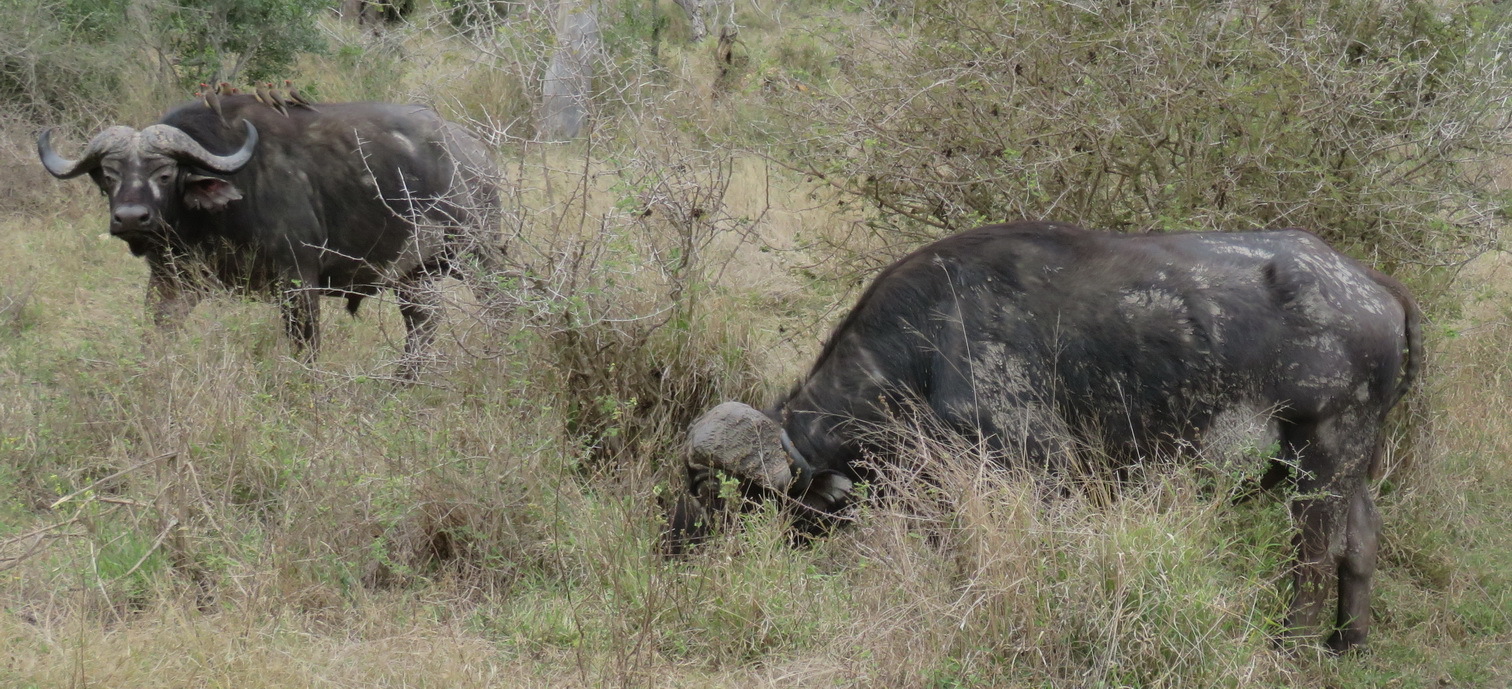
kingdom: Animalia
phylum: Chordata
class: Mammalia
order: Artiodactyla
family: Bovidae
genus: Syncerus
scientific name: Syncerus caffer
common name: African buffalo
